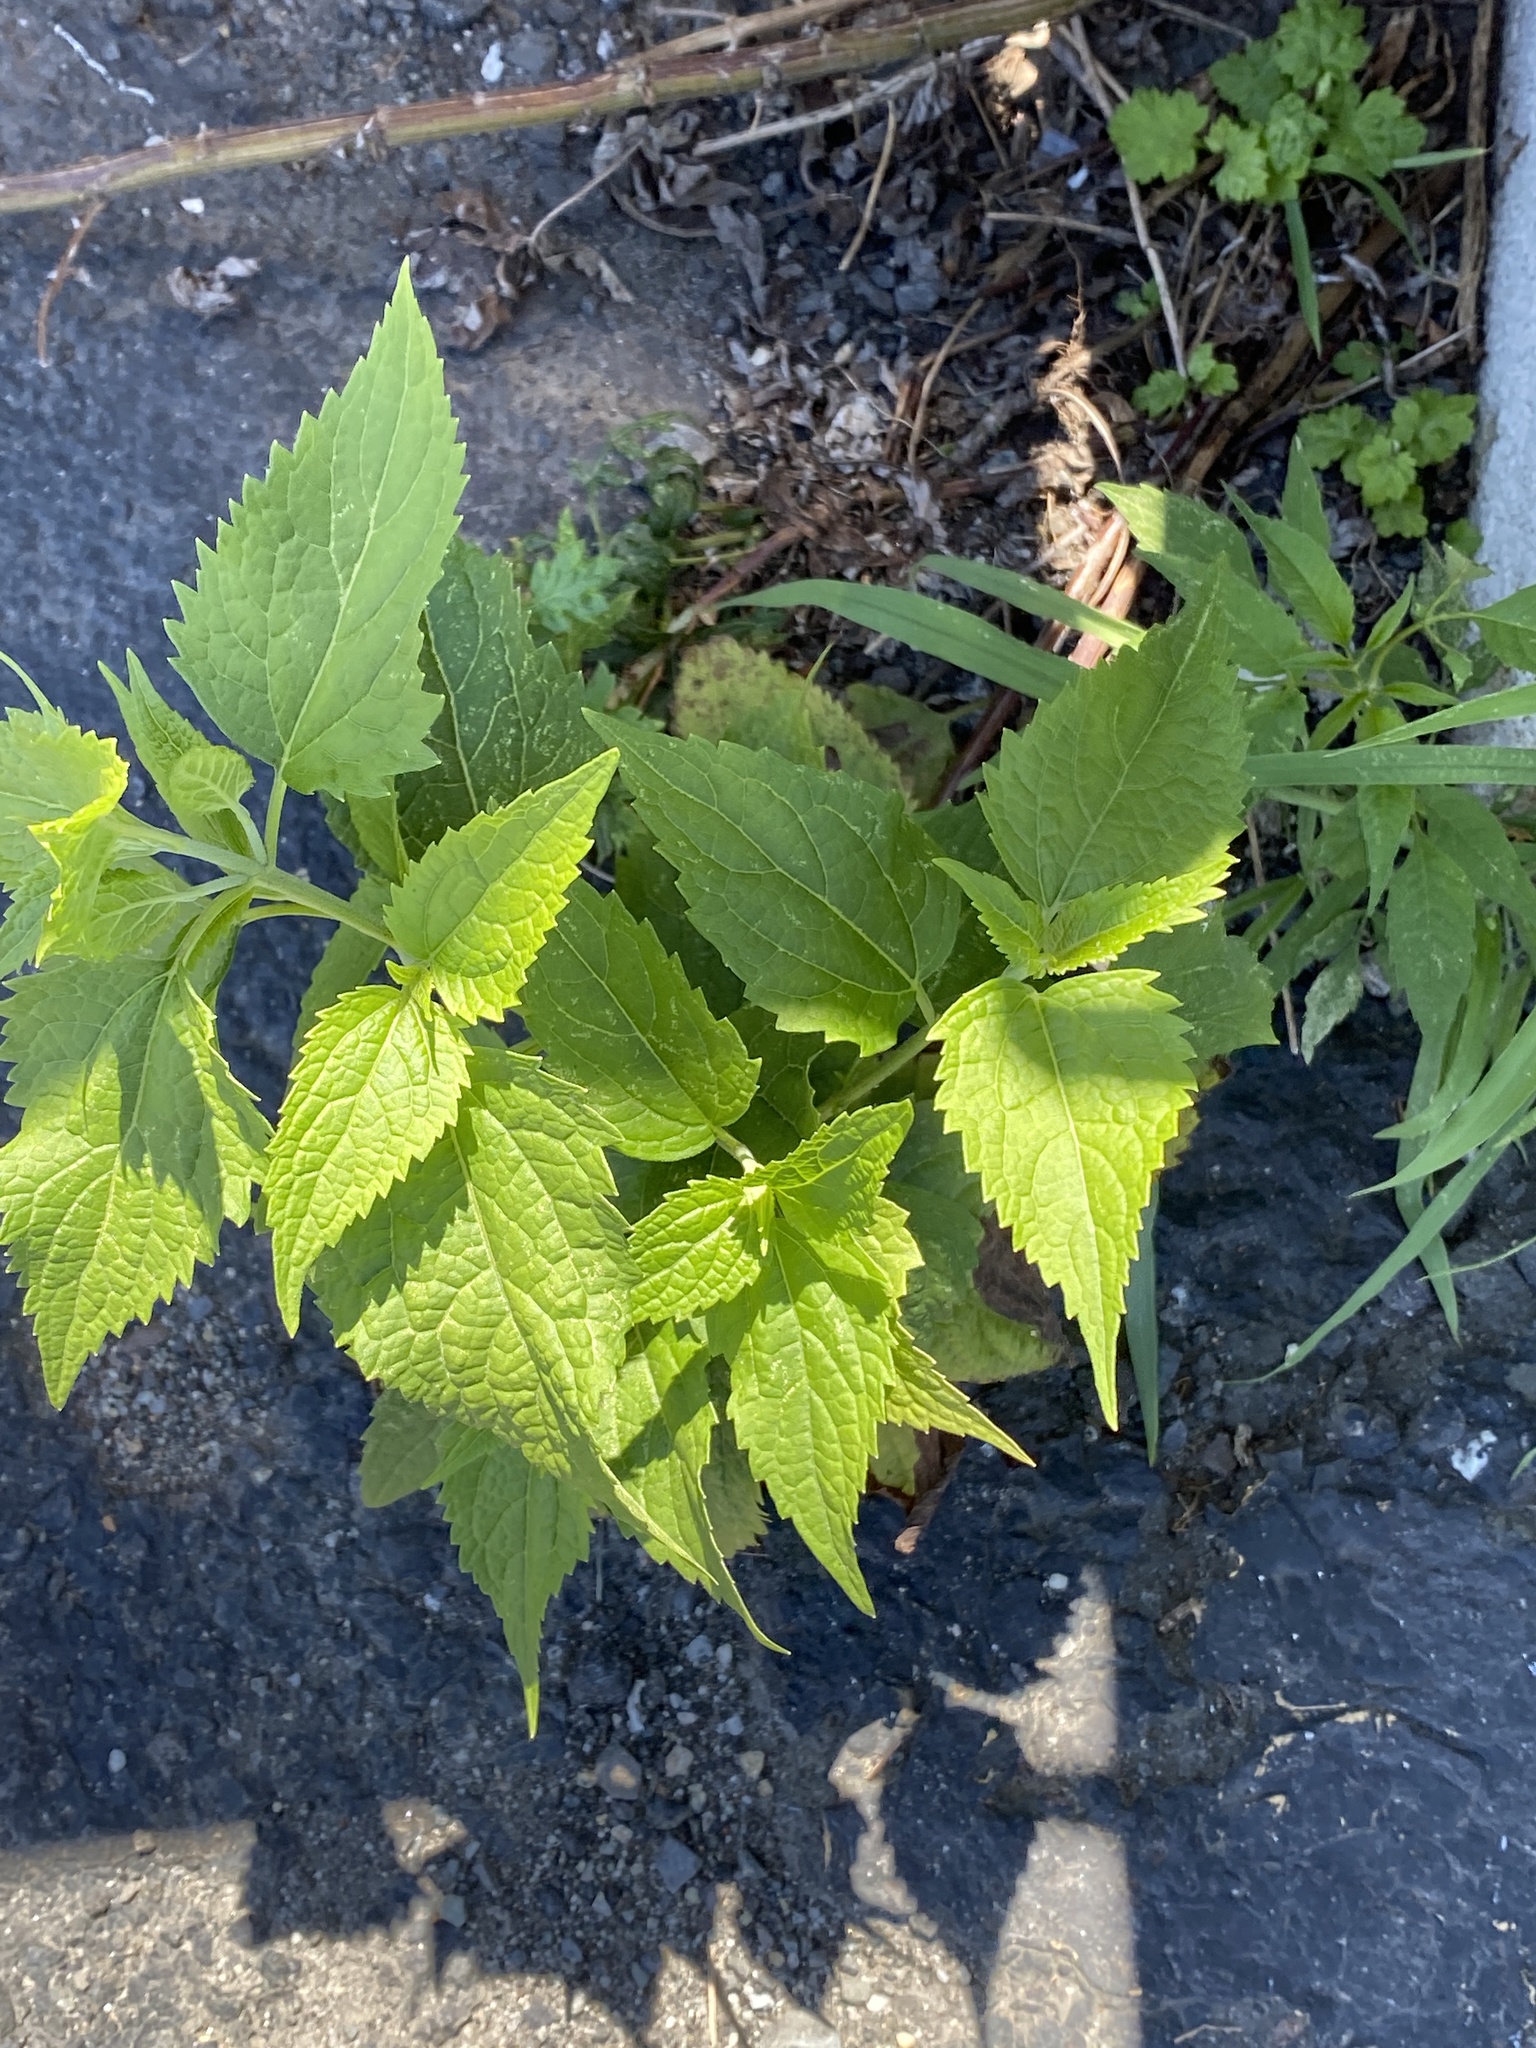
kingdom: Plantae
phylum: Tracheophyta
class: Magnoliopsida
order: Asterales
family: Asteraceae
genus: Ageratina
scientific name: Ageratina altissima
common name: White snakeroot
